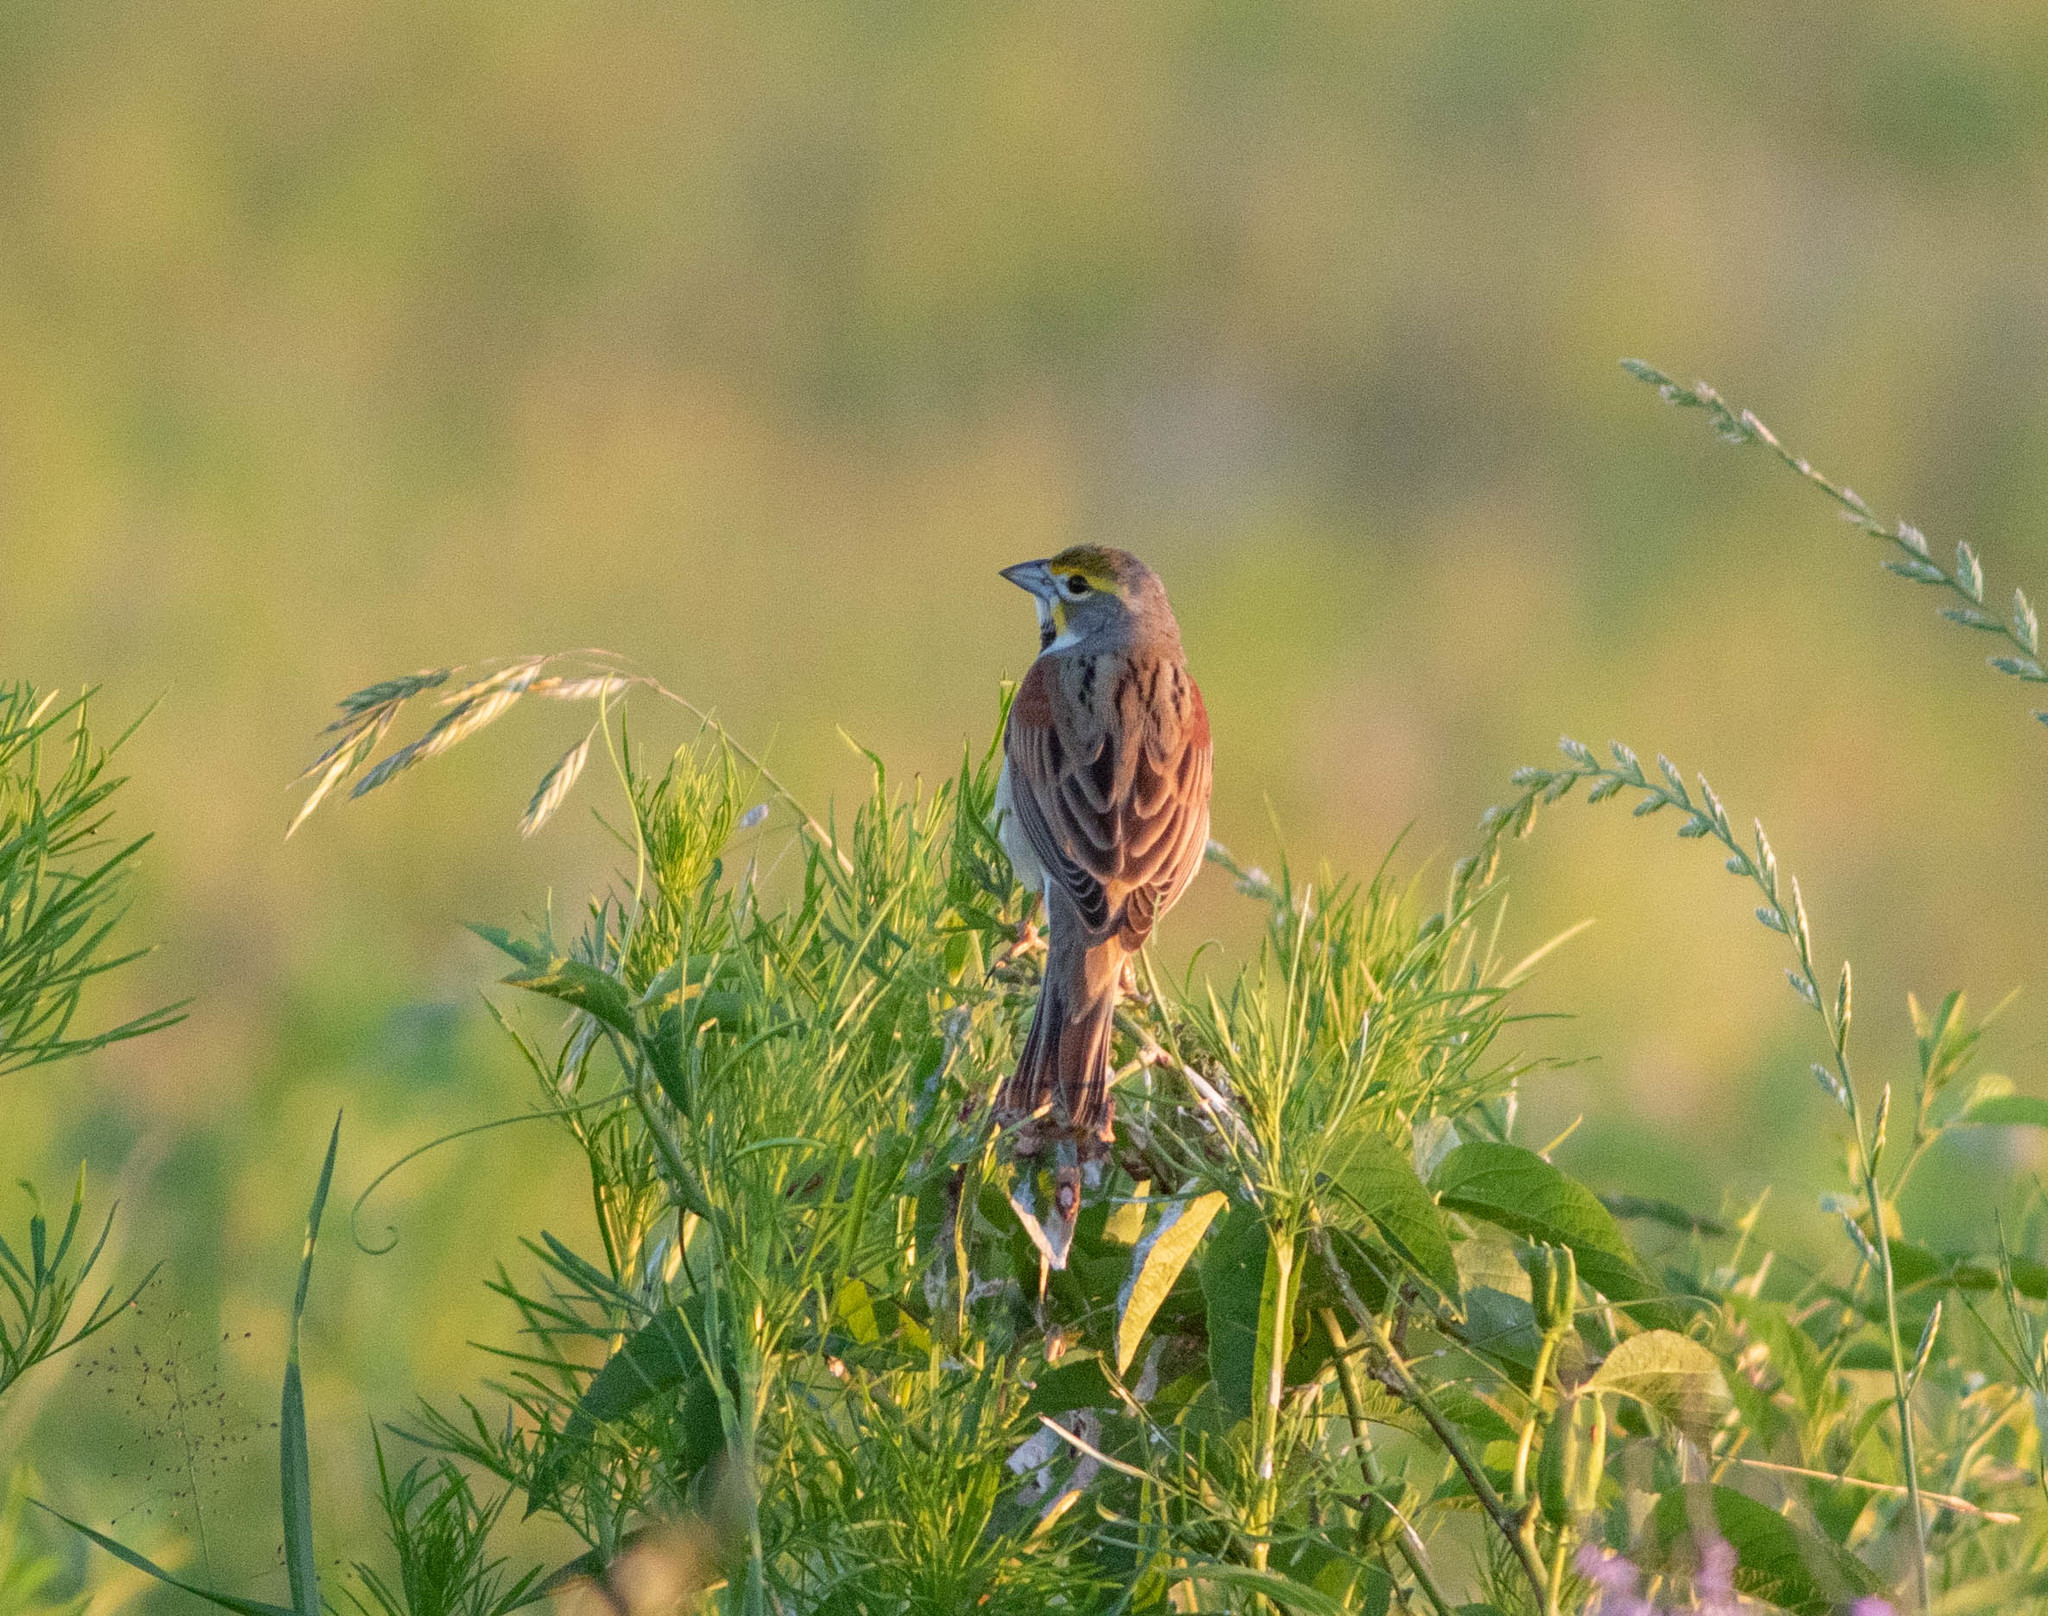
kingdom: Animalia
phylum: Chordata
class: Aves
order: Passeriformes
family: Cardinalidae
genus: Spiza
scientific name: Spiza americana
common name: Dickcissel
